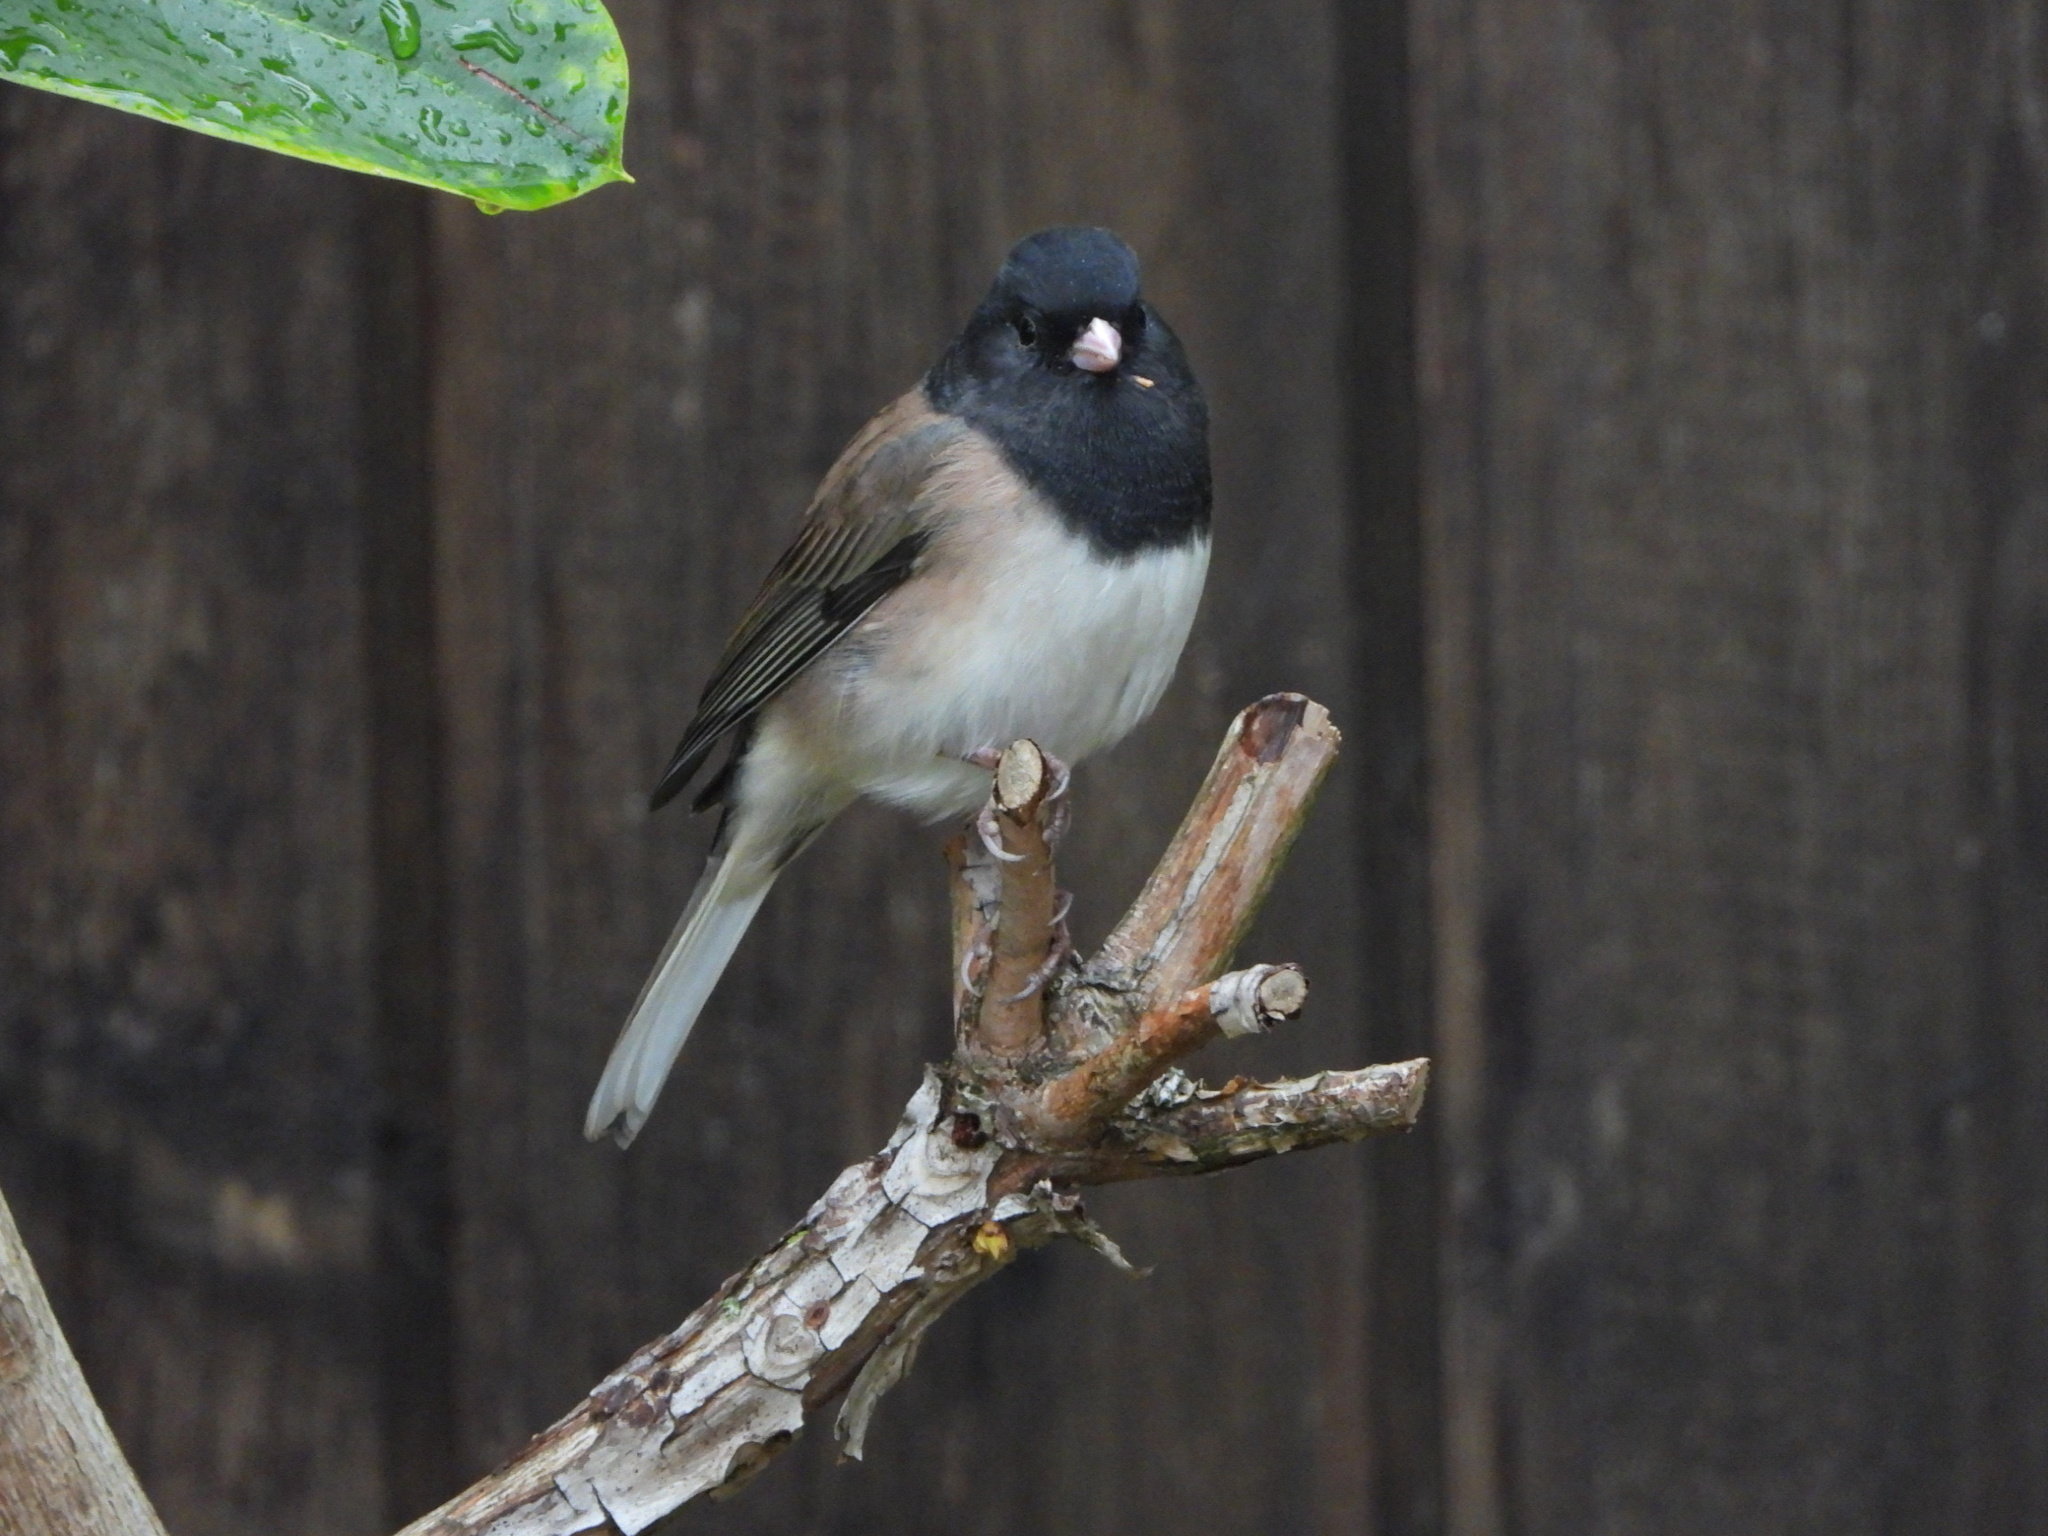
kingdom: Animalia
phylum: Chordata
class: Aves
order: Passeriformes
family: Passerellidae
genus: Junco
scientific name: Junco hyemalis
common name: Dark-eyed junco
